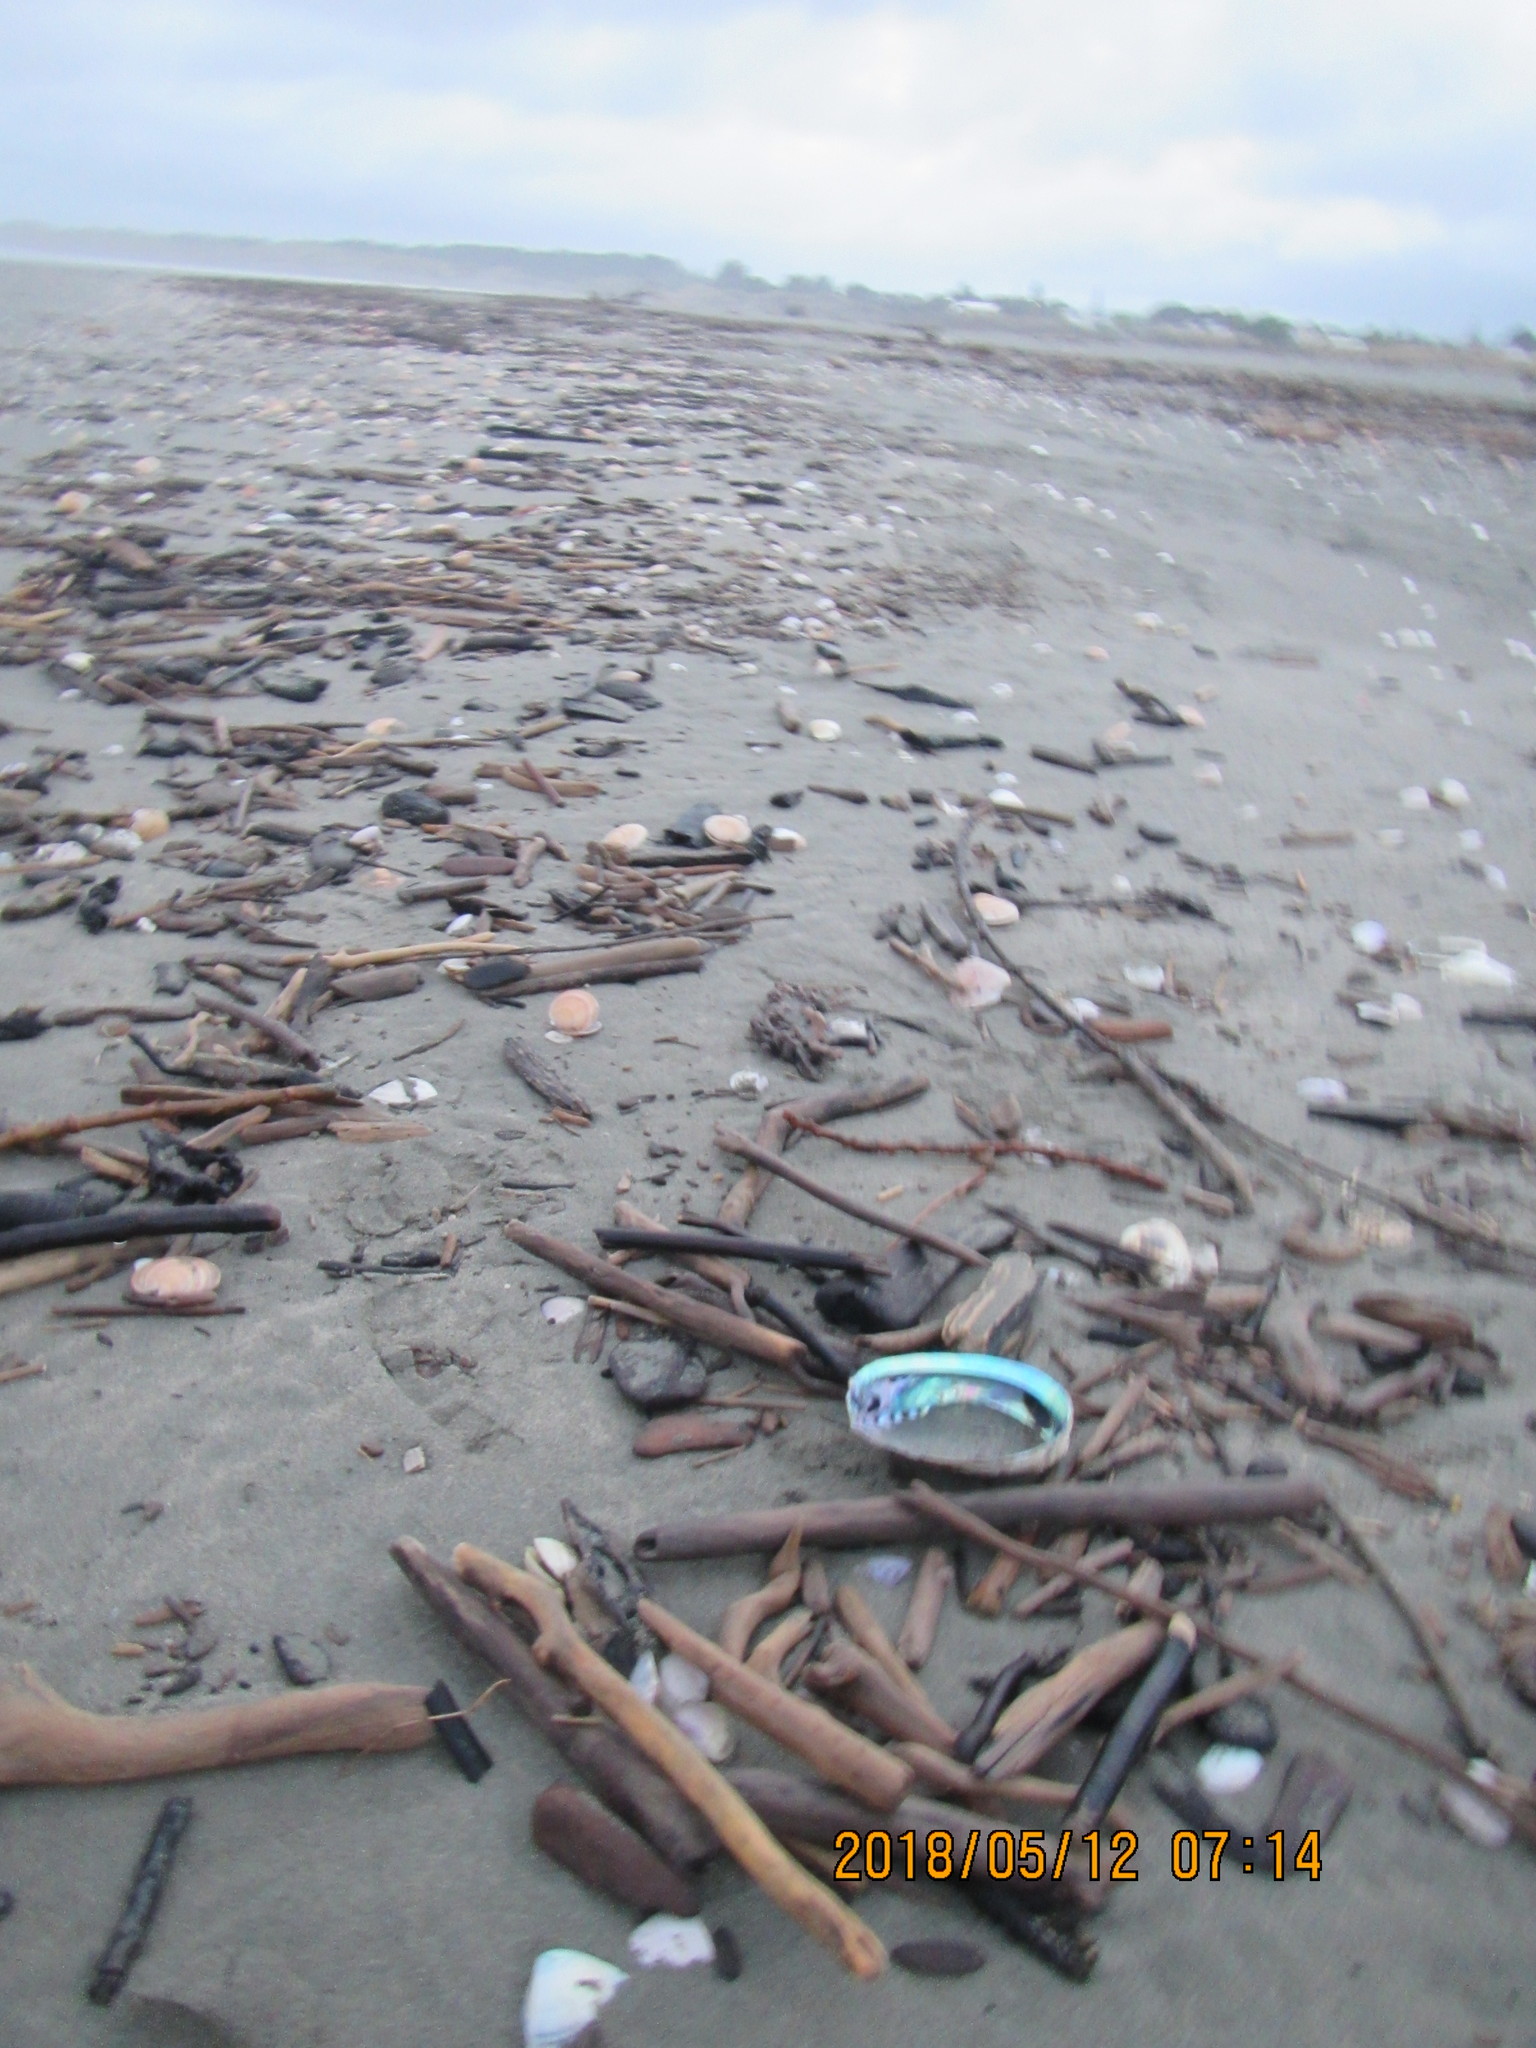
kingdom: Animalia
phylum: Mollusca
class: Gastropoda
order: Lepetellida
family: Haliotidae
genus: Haliotis
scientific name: Haliotis iris
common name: Abalone
